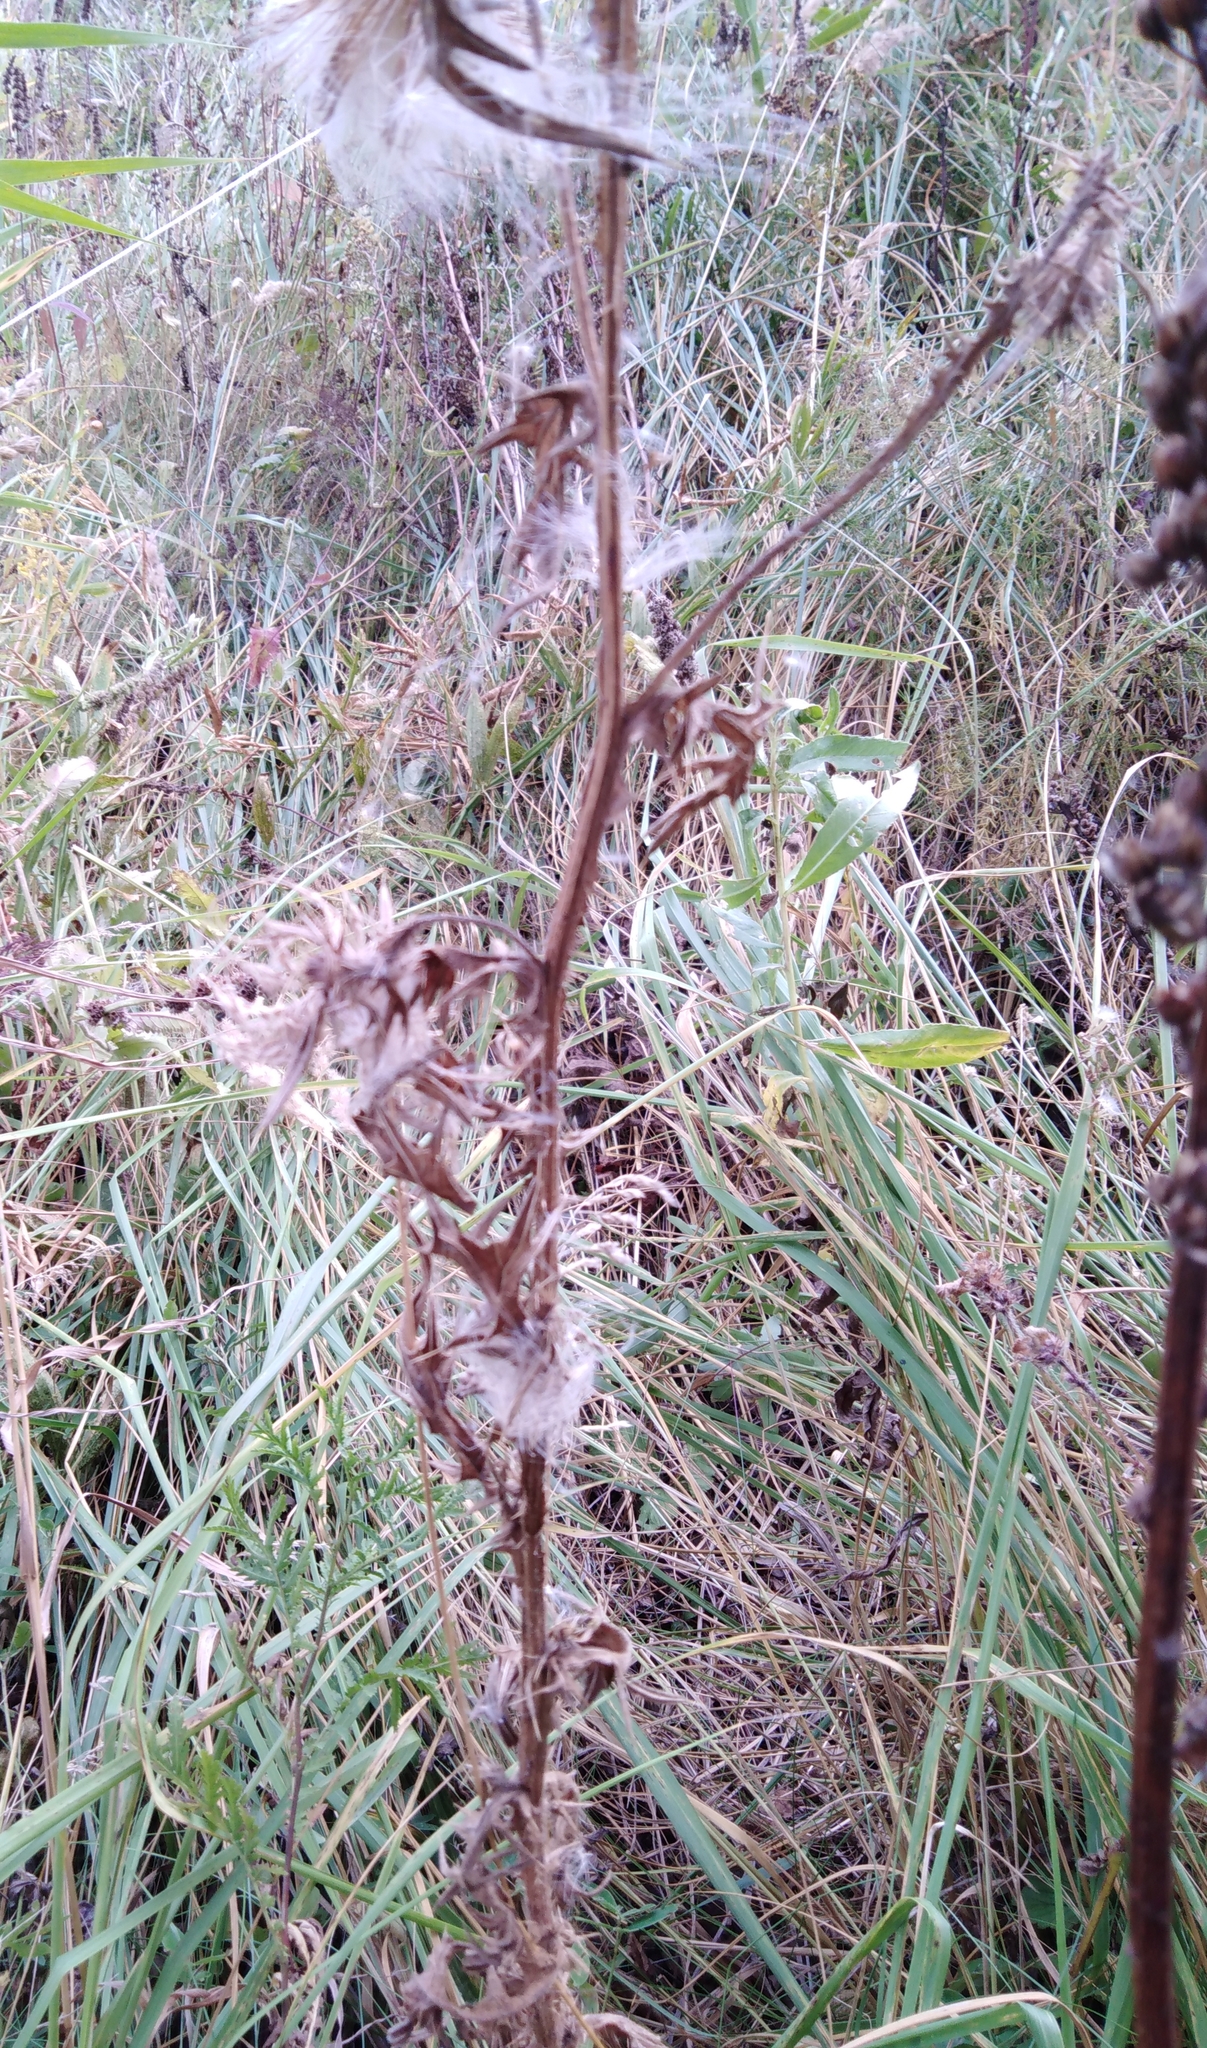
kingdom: Plantae
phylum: Tracheophyta
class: Magnoliopsida
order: Asterales
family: Asteraceae
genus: Cirsium
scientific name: Cirsium vulgare
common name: Bull thistle
